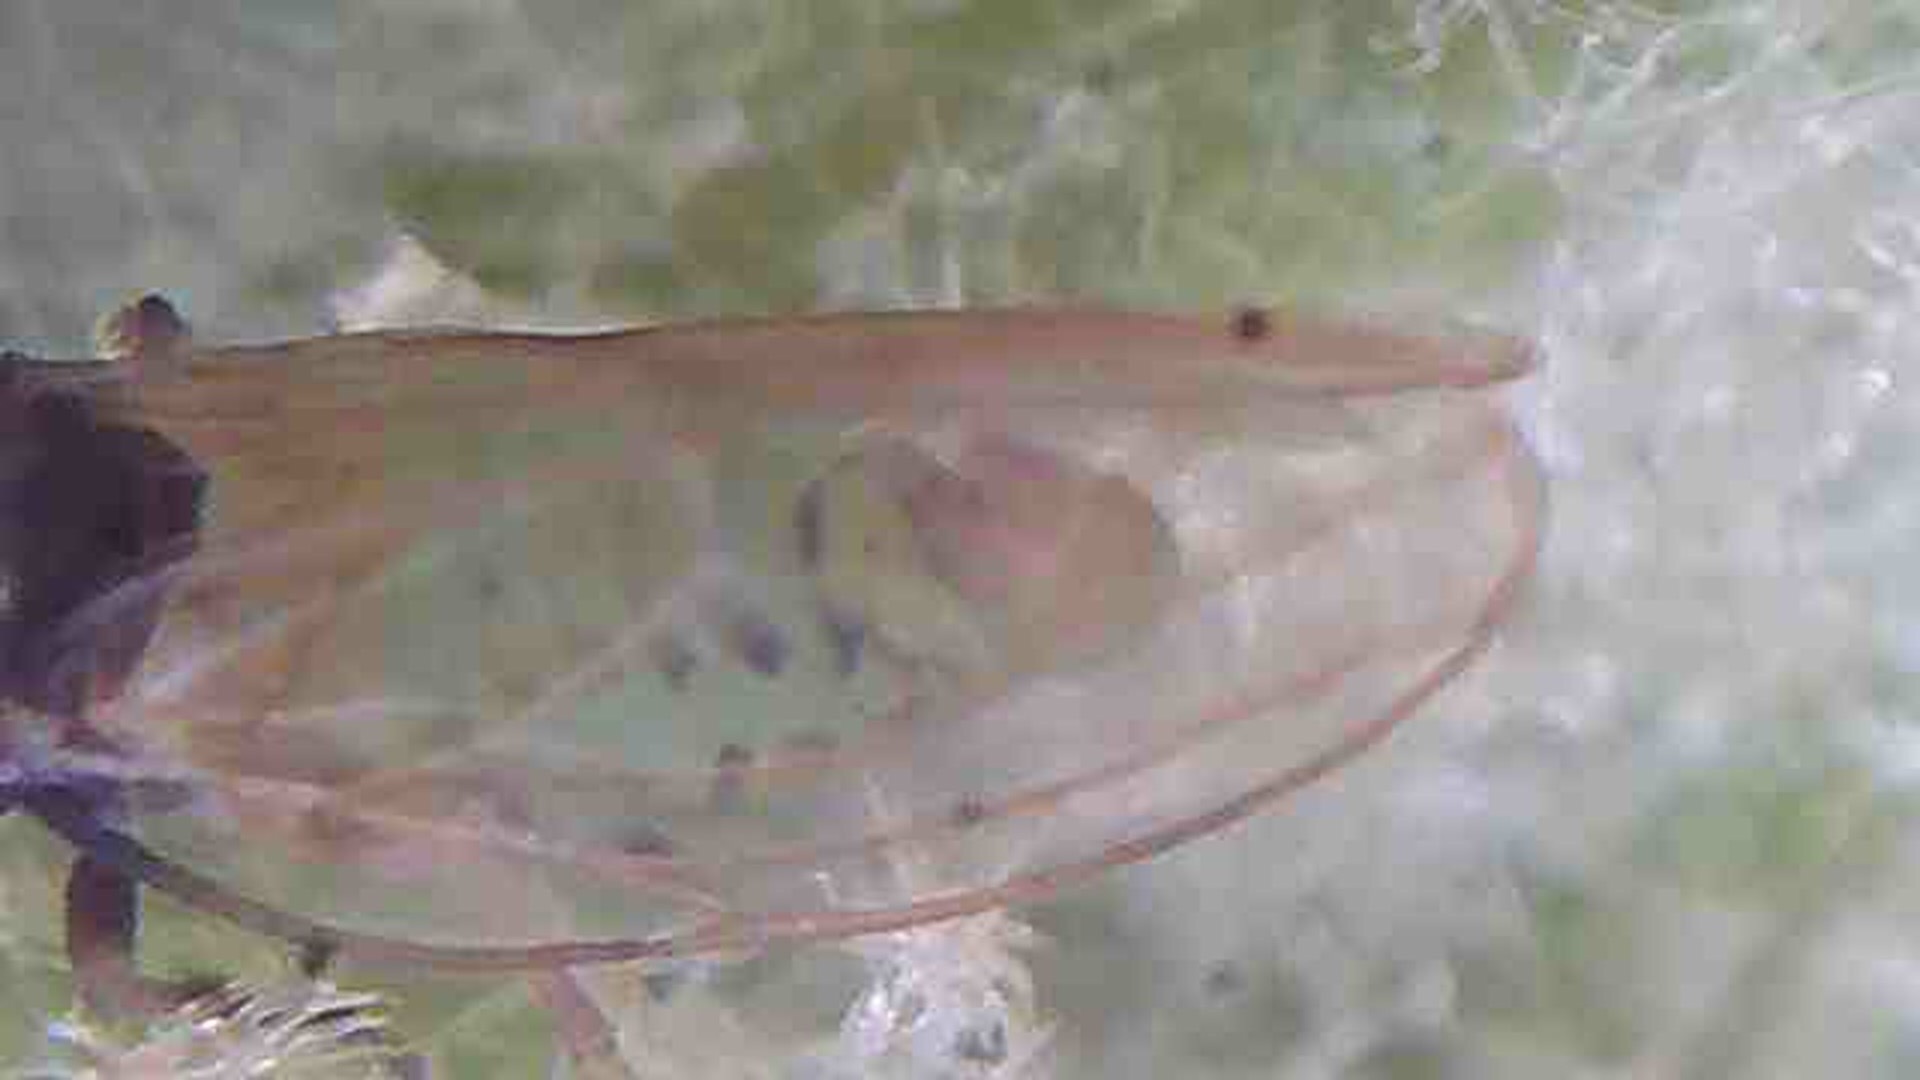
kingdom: Animalia
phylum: Arthropoda
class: Insecta
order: Hemiptera
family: Psyllidae
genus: Acizzia
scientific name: Acizzia solanicola
